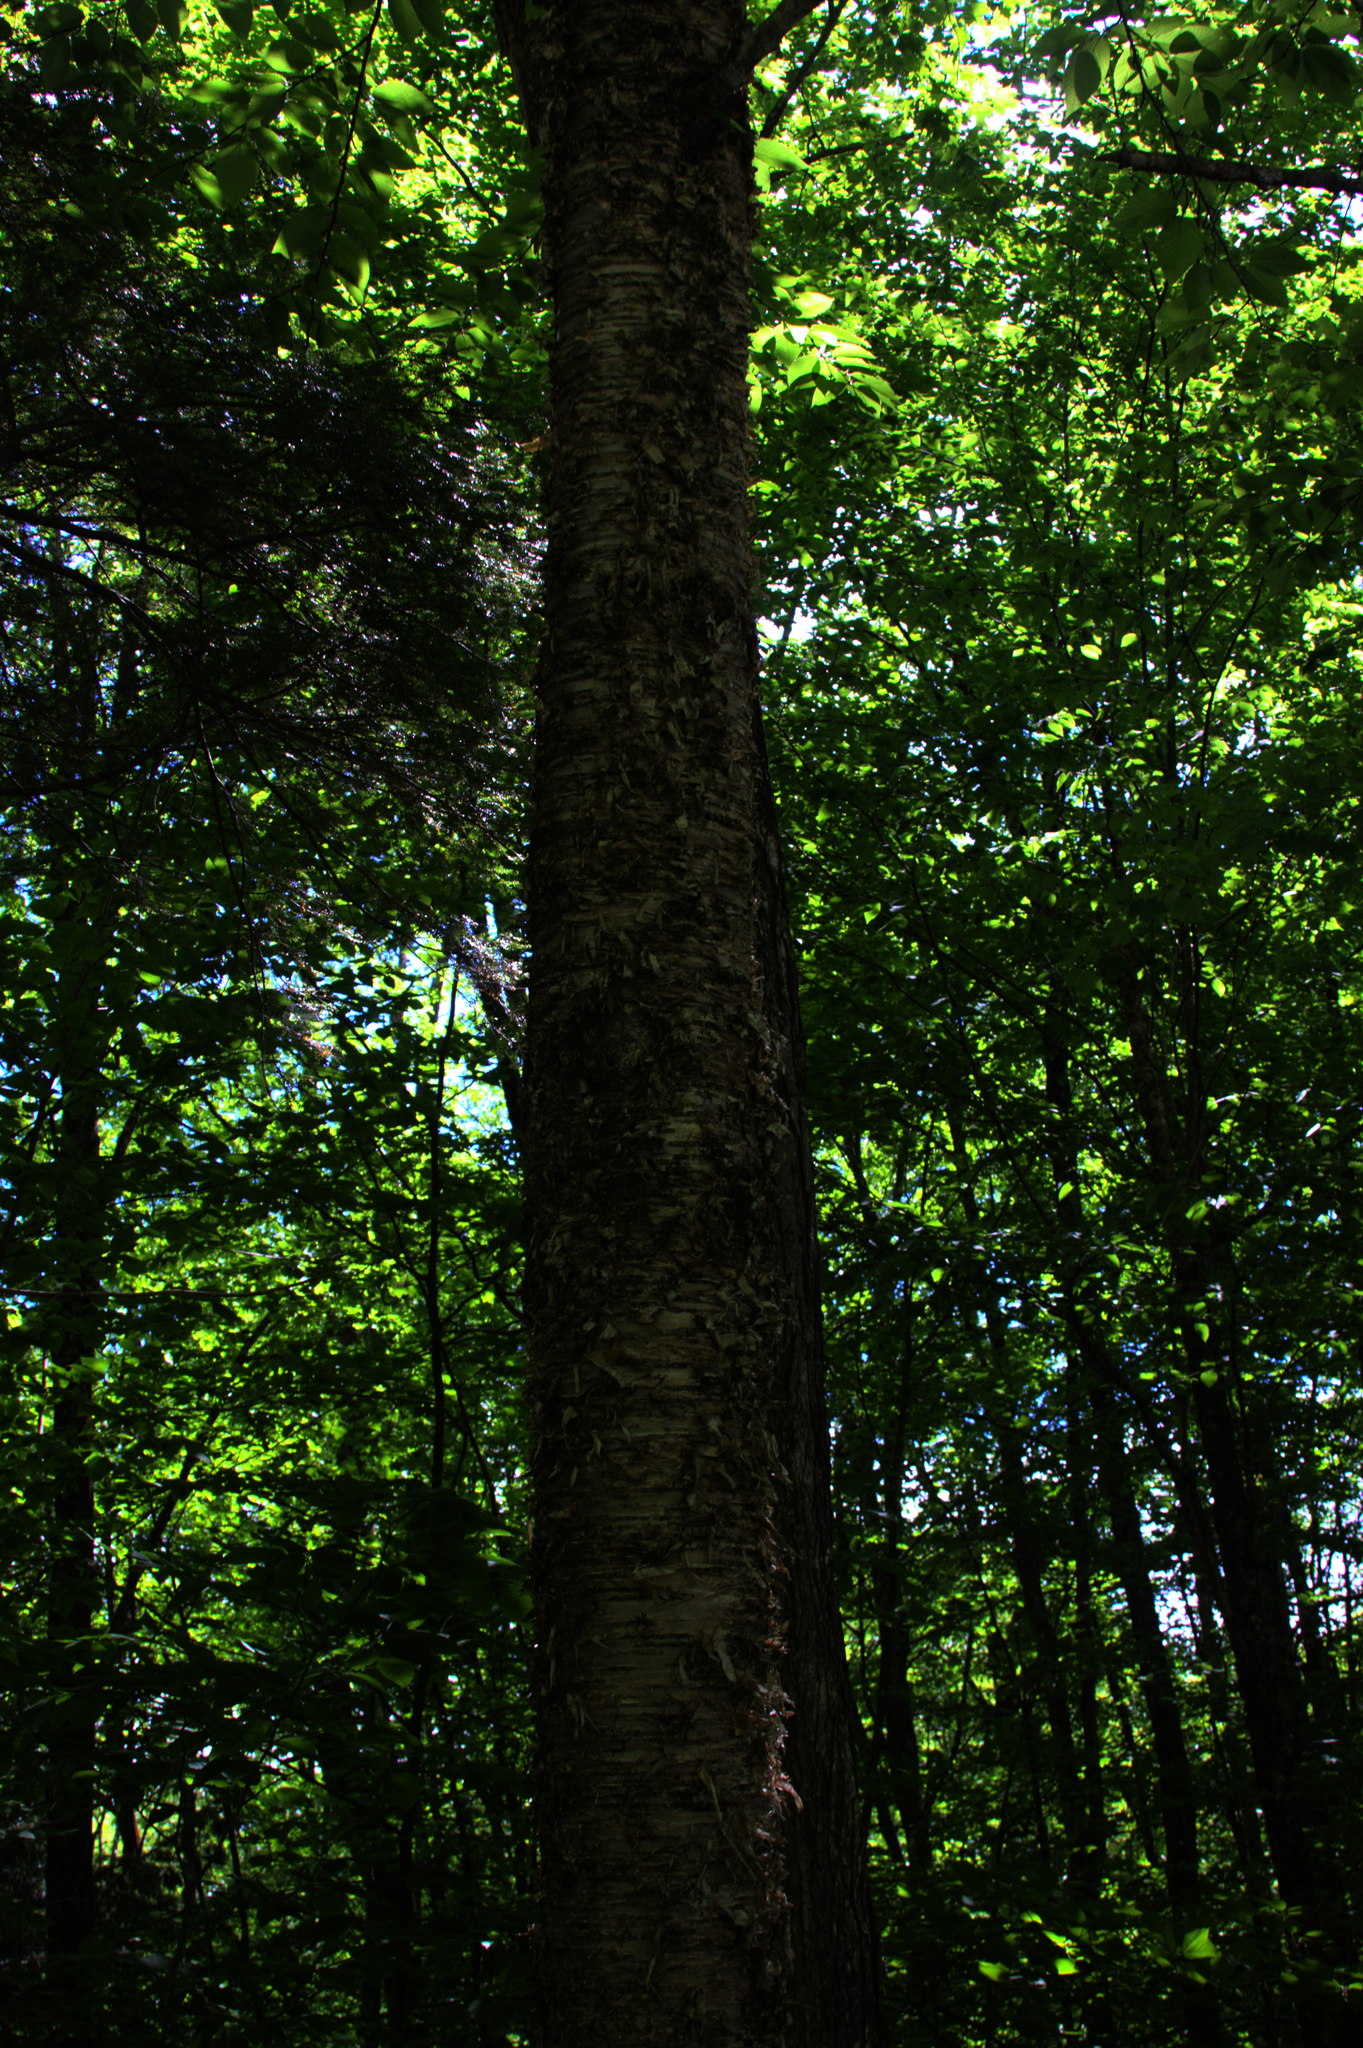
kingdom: Plantae
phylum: Tracheophyta
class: Magnoliopsida
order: Fagales
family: Betulaceae
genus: Betula
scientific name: Betula alleghaniensis
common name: Yellow birch
